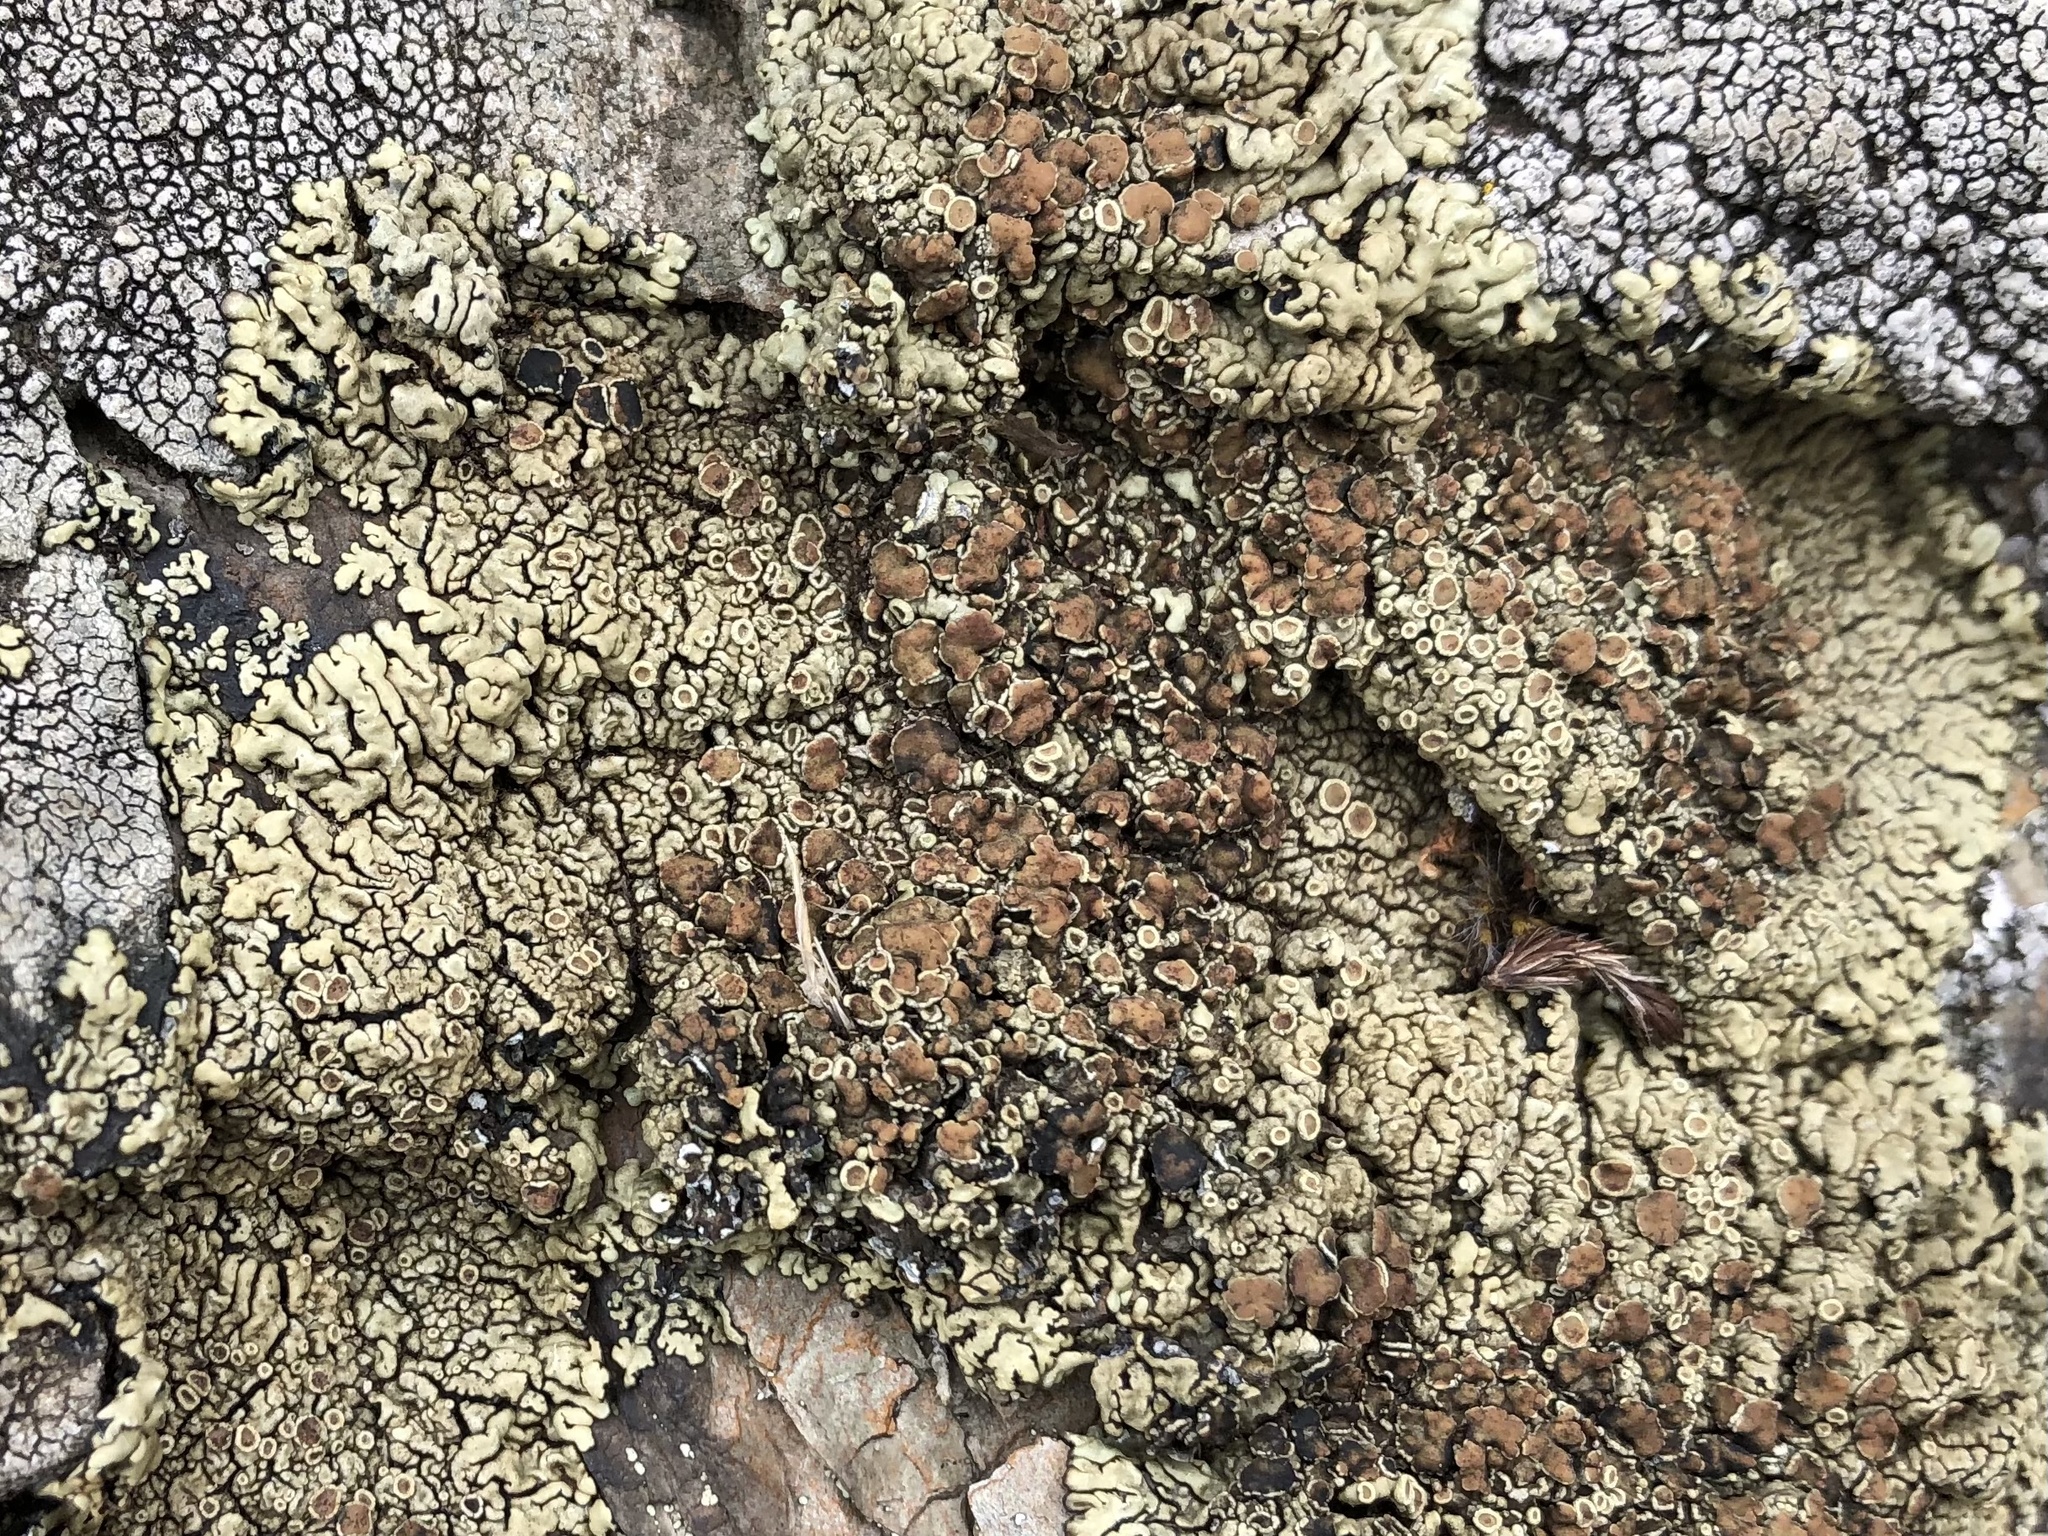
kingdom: Fungi
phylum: Ascomycota
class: Lecanoromycetes
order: Lecanorales
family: Lecanoraceae
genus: Protoparmeliopsis
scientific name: Protoparmeliopsis garovaglii
